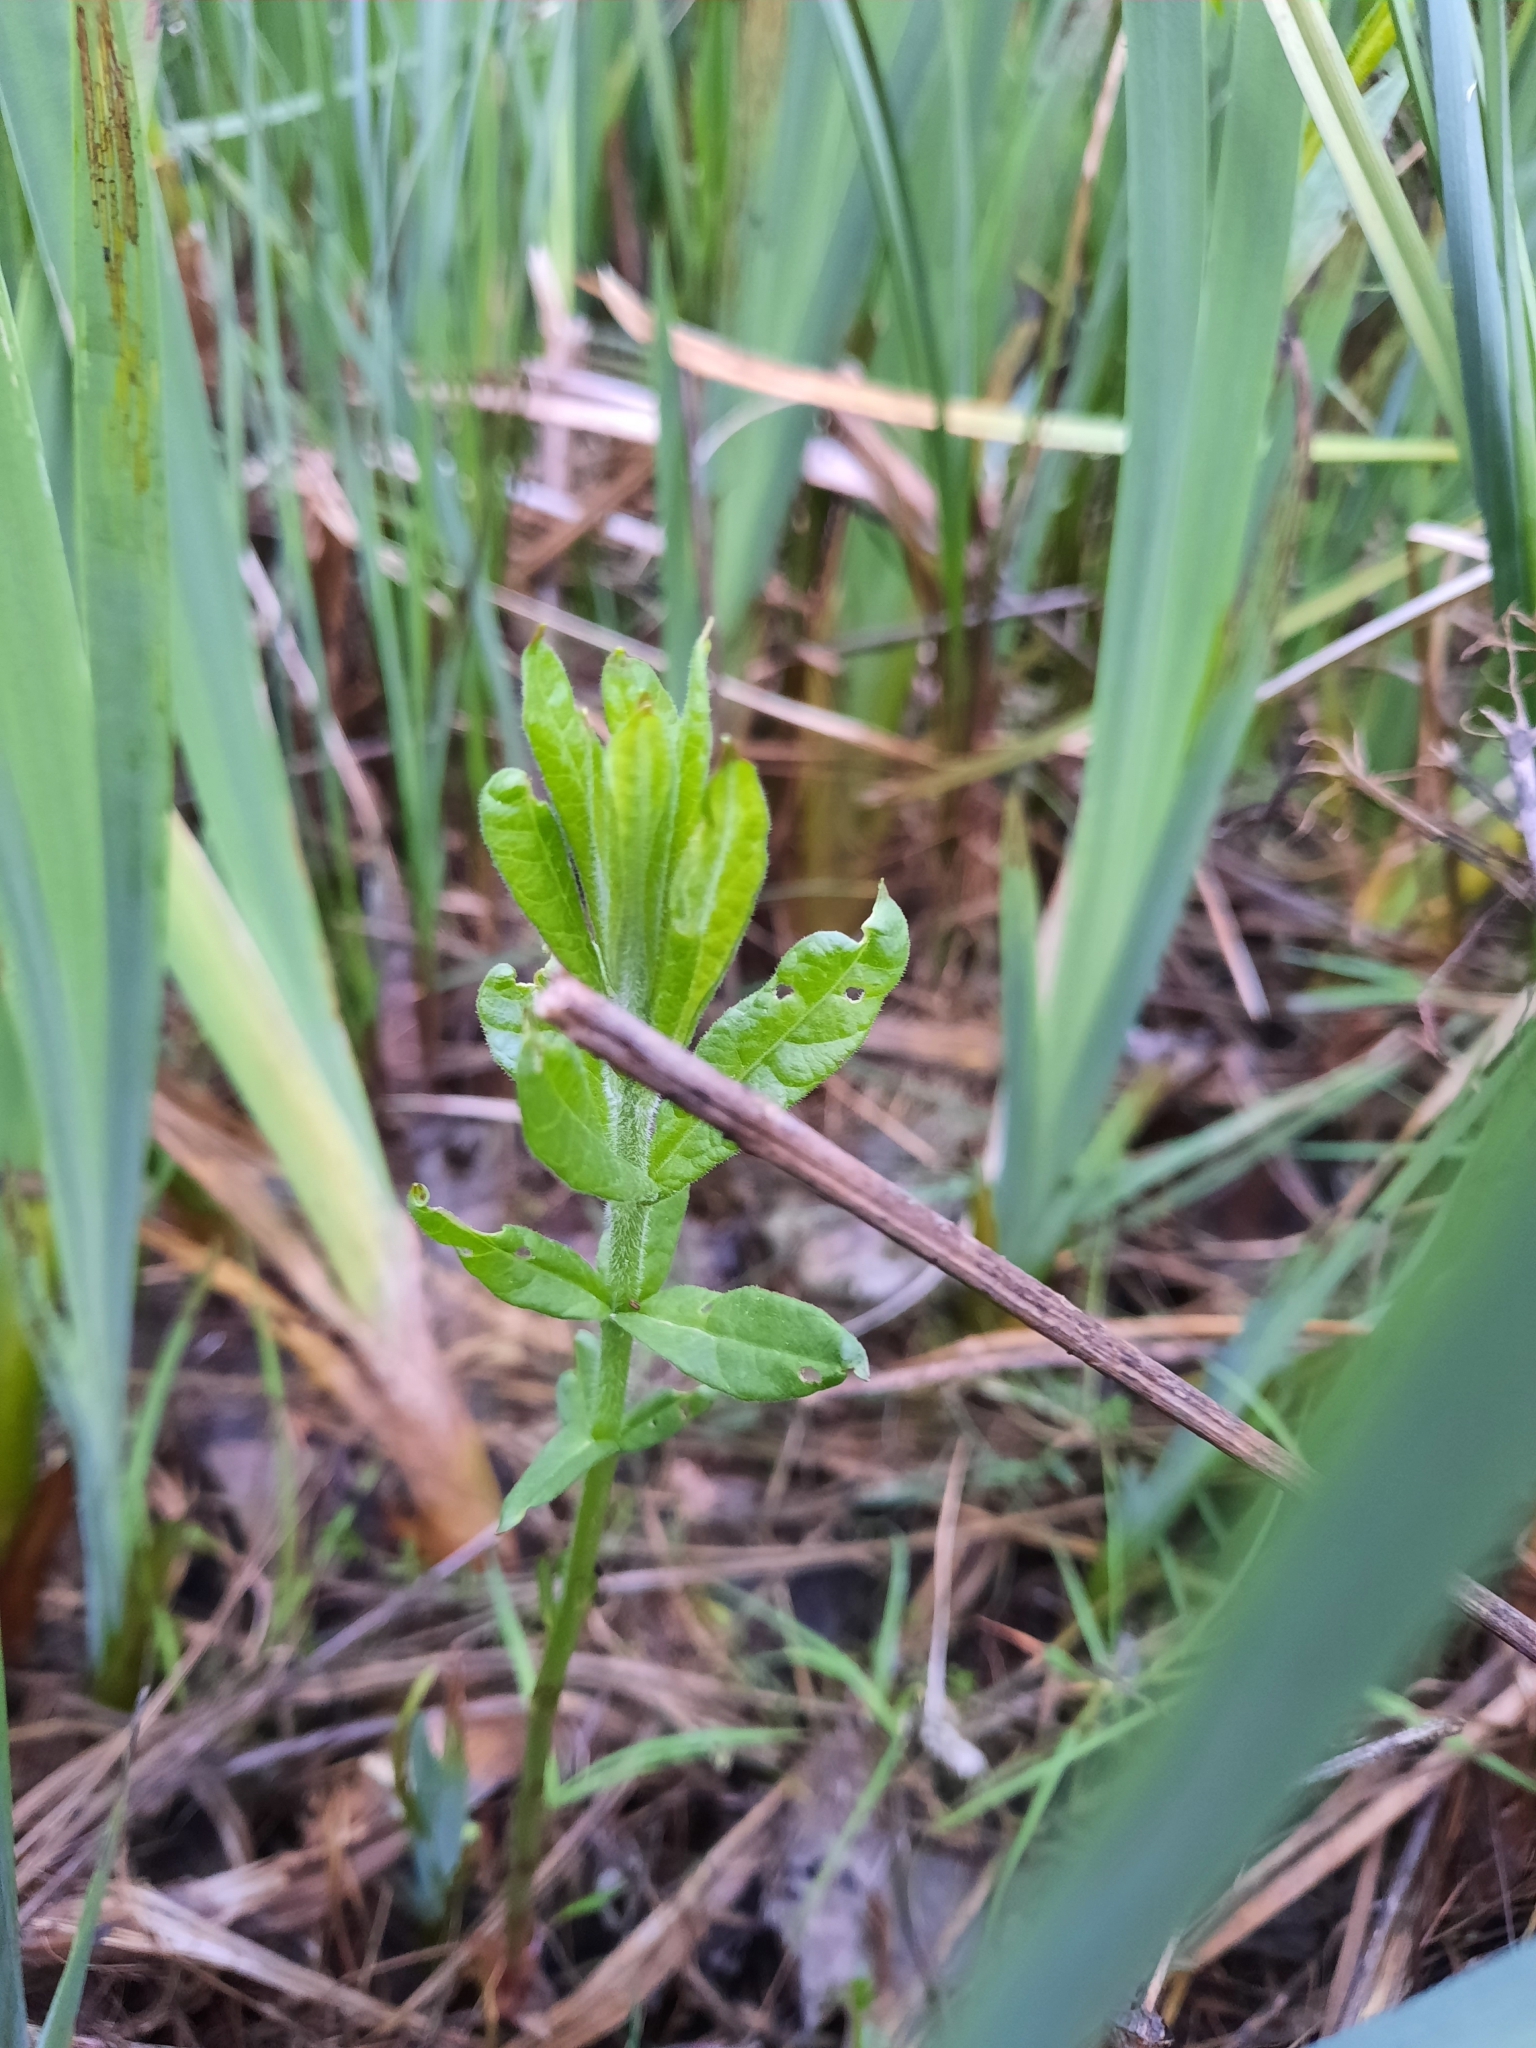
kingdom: Plantae
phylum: Tracheophyta
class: Magnoliopsida
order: Ericales
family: Primulaceae
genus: Lysimachia
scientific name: Lysimachia vulgaris
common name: Yellow loosestrife
